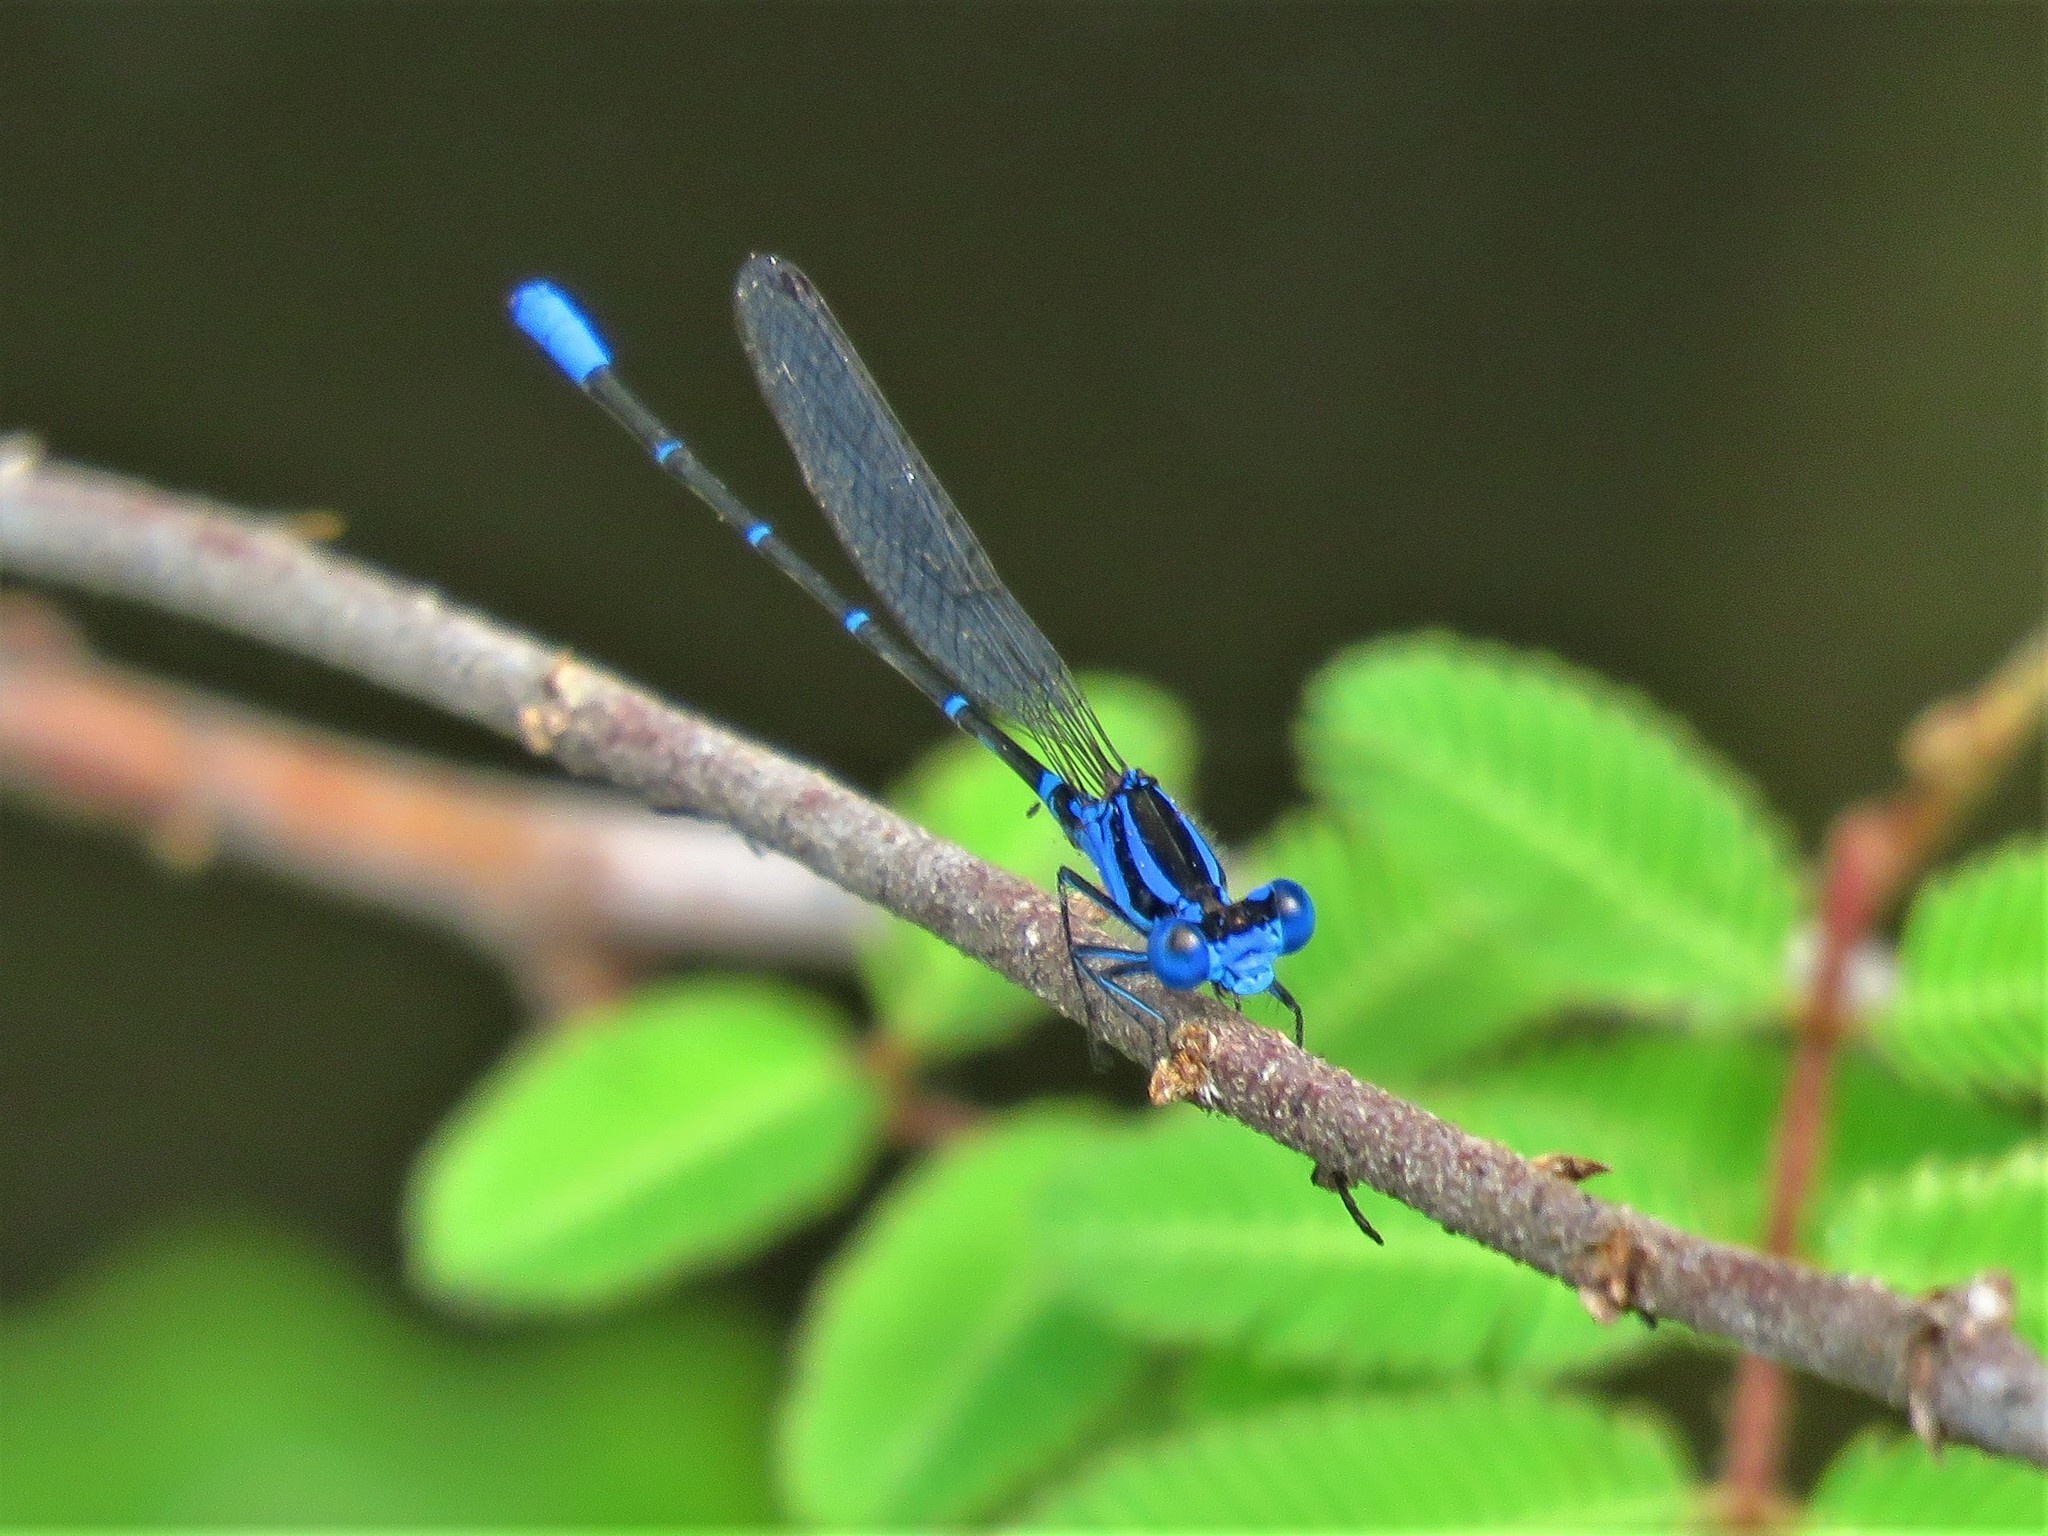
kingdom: Animalia
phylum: Arthropoda
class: Insecta
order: Odonata
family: Coenagrionidae
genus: Argia
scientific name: Argia gaumeri
